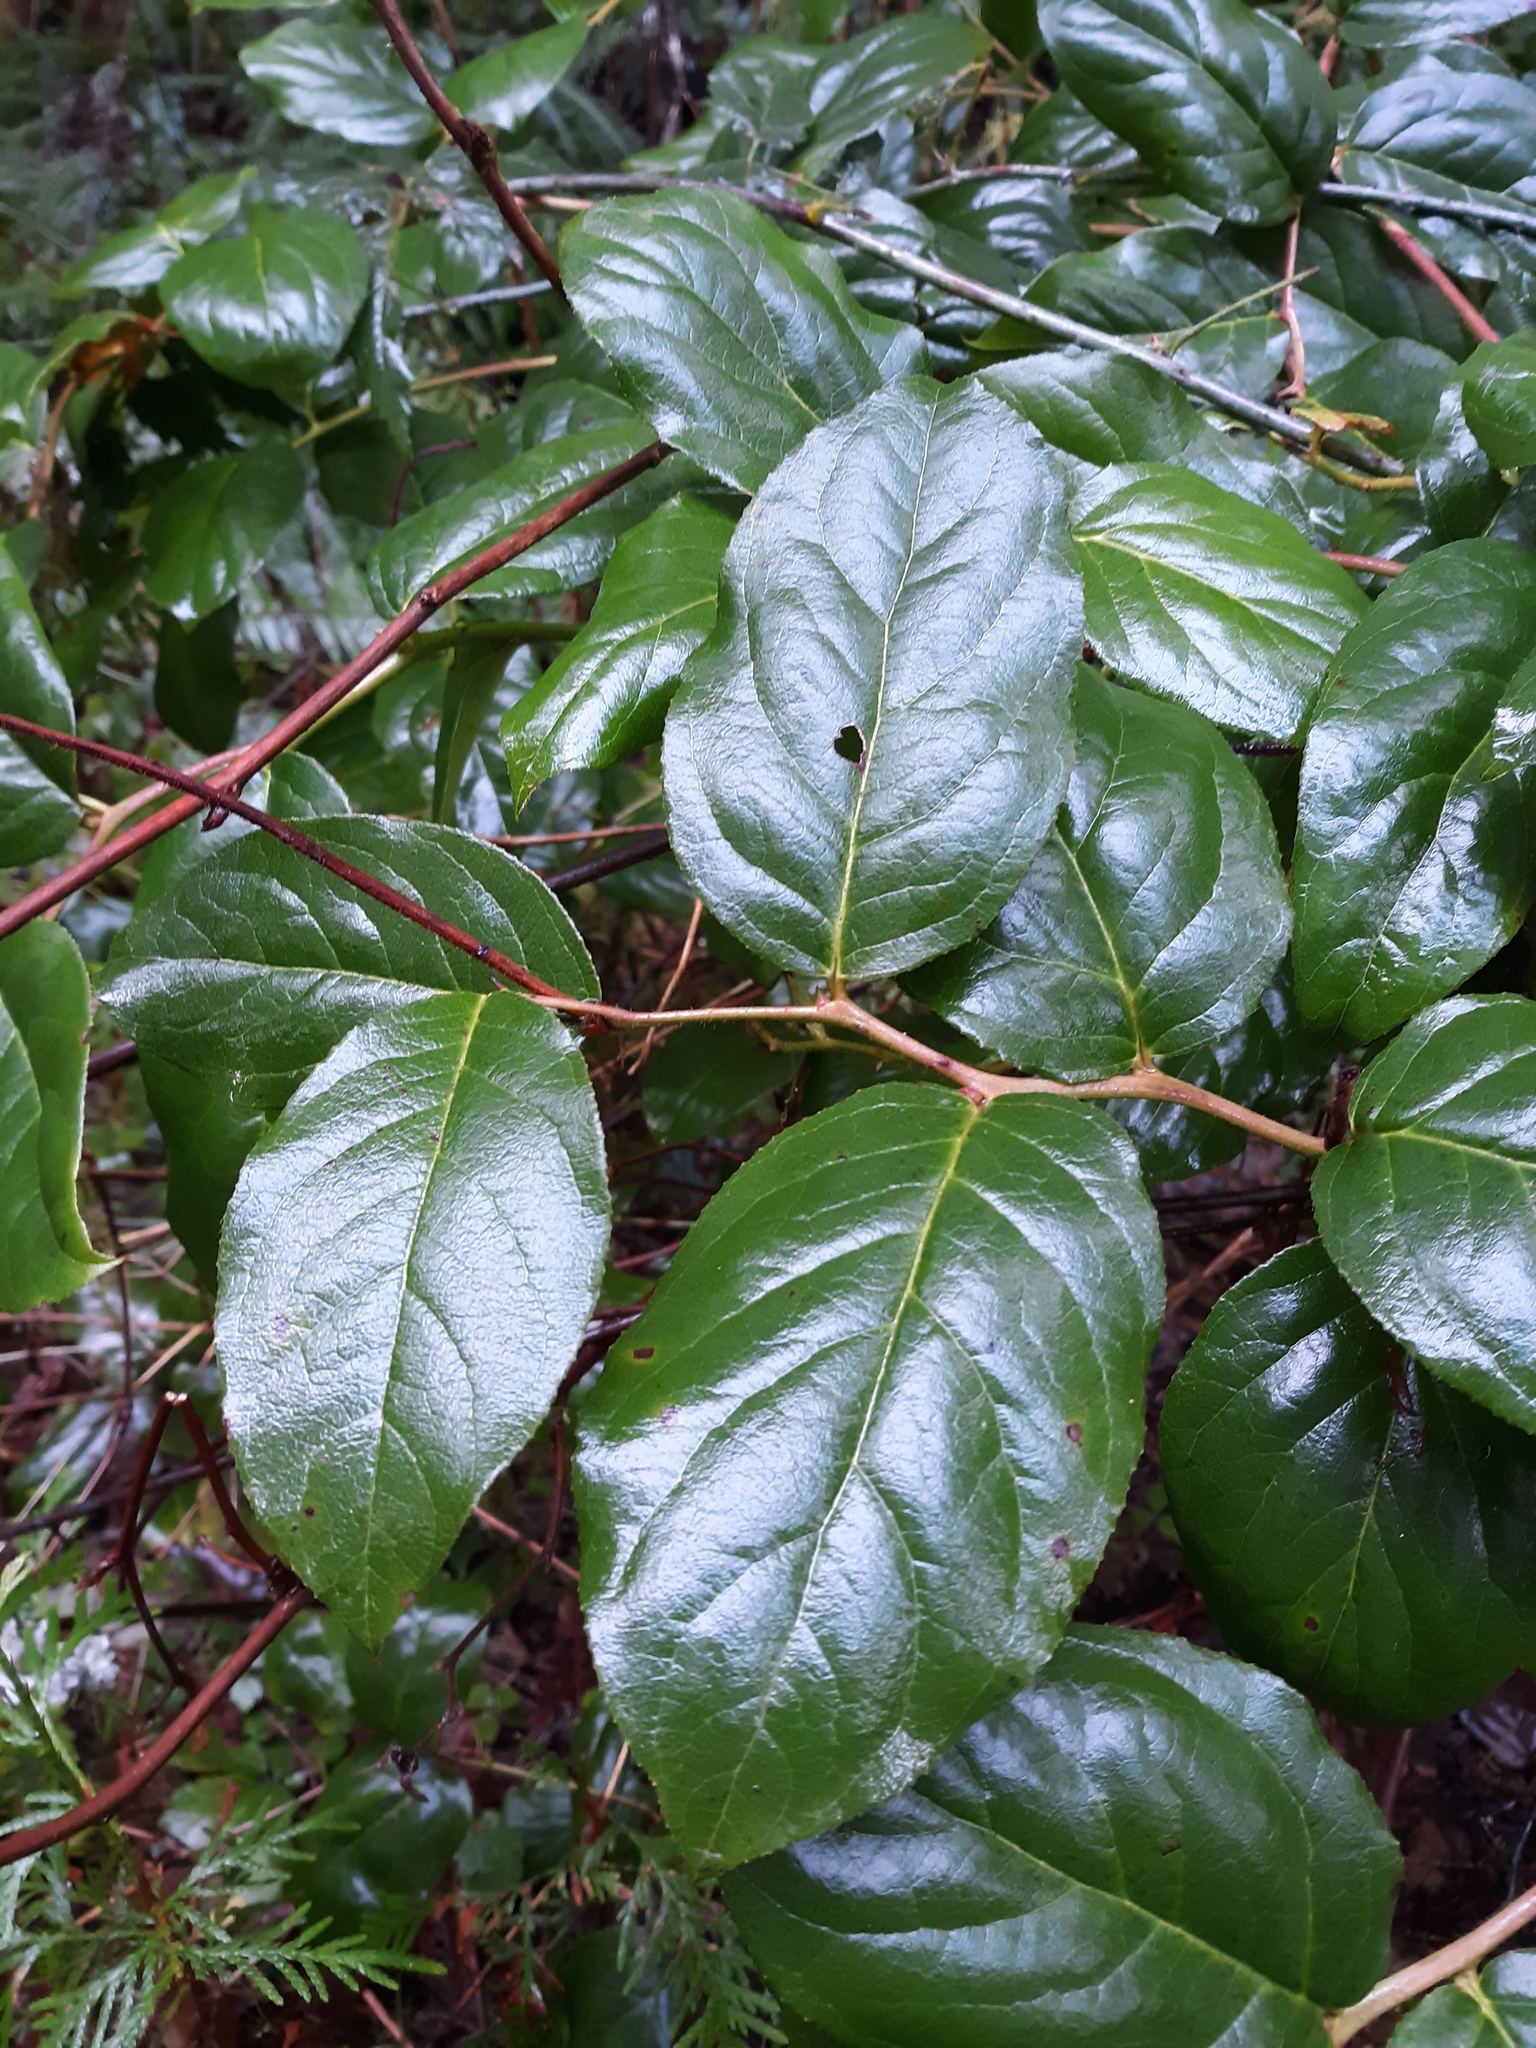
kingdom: Plantae
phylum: Tracheophyta
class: Magnoliopsida
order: Ericales
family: Ericaceae
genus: Gaultheria
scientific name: Gaultheria shallon
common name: Shallon
